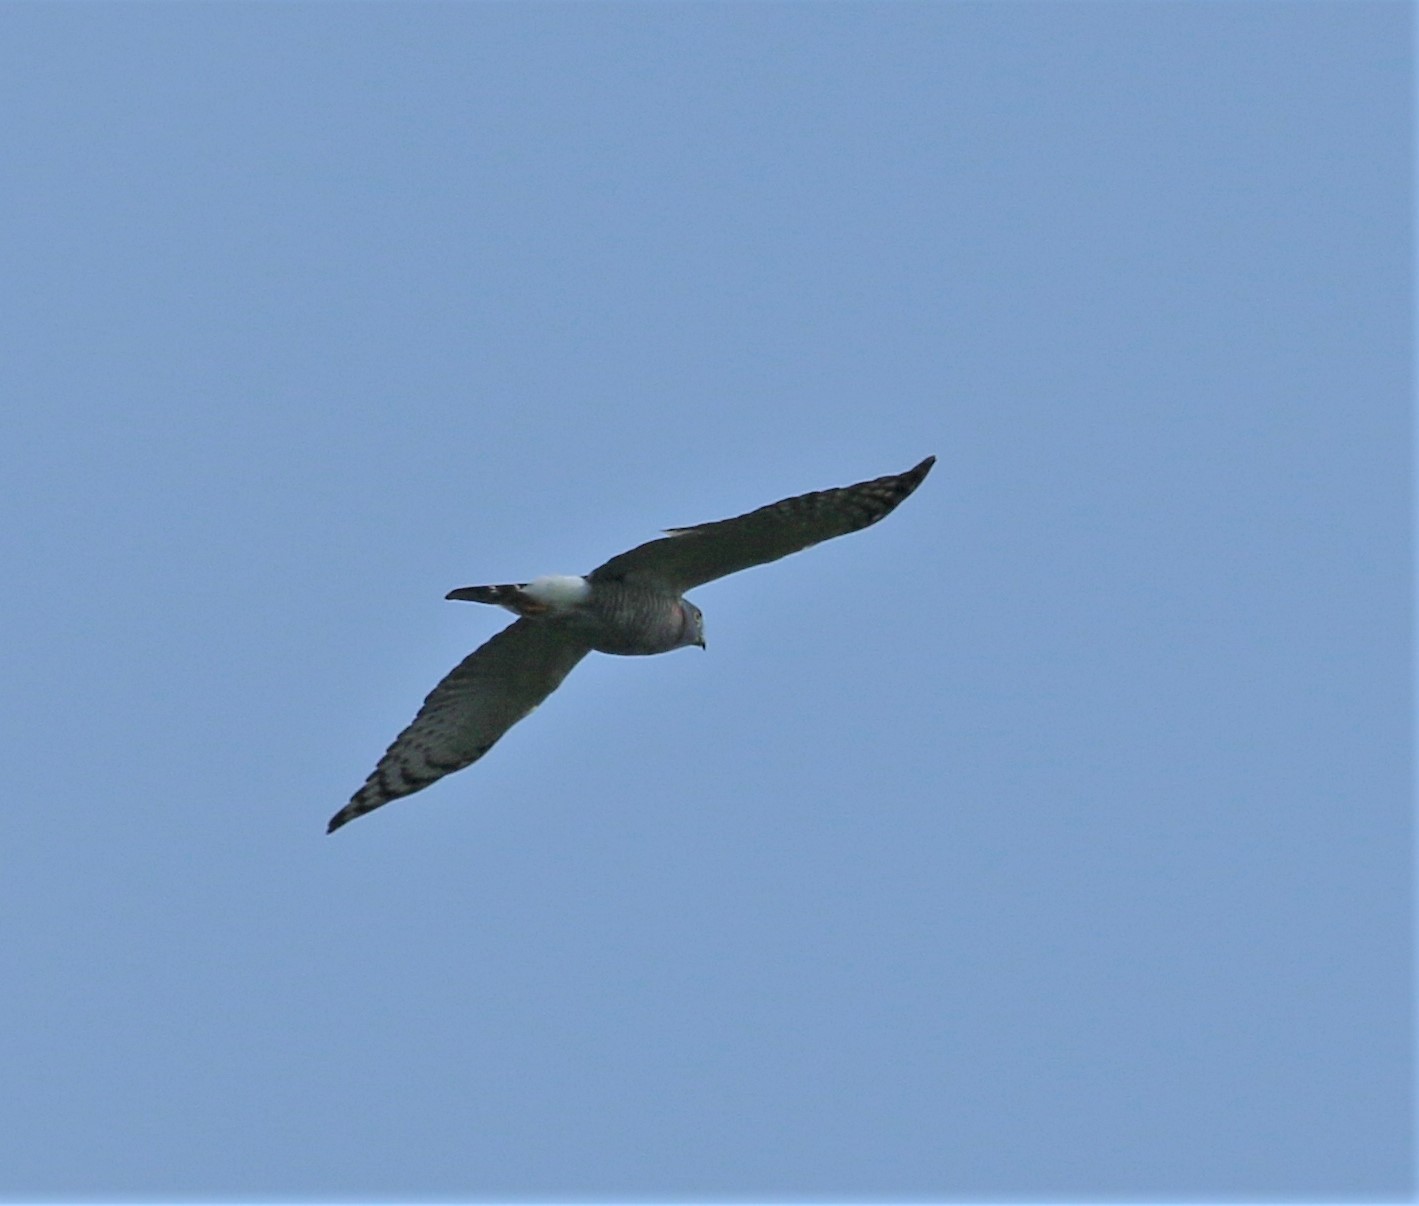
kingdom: Animalia
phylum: Chordata
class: Aves
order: Accipitriformes
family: Accipitridae
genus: Harpagus
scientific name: Harpagus bidentatus
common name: Double-toothed kite
